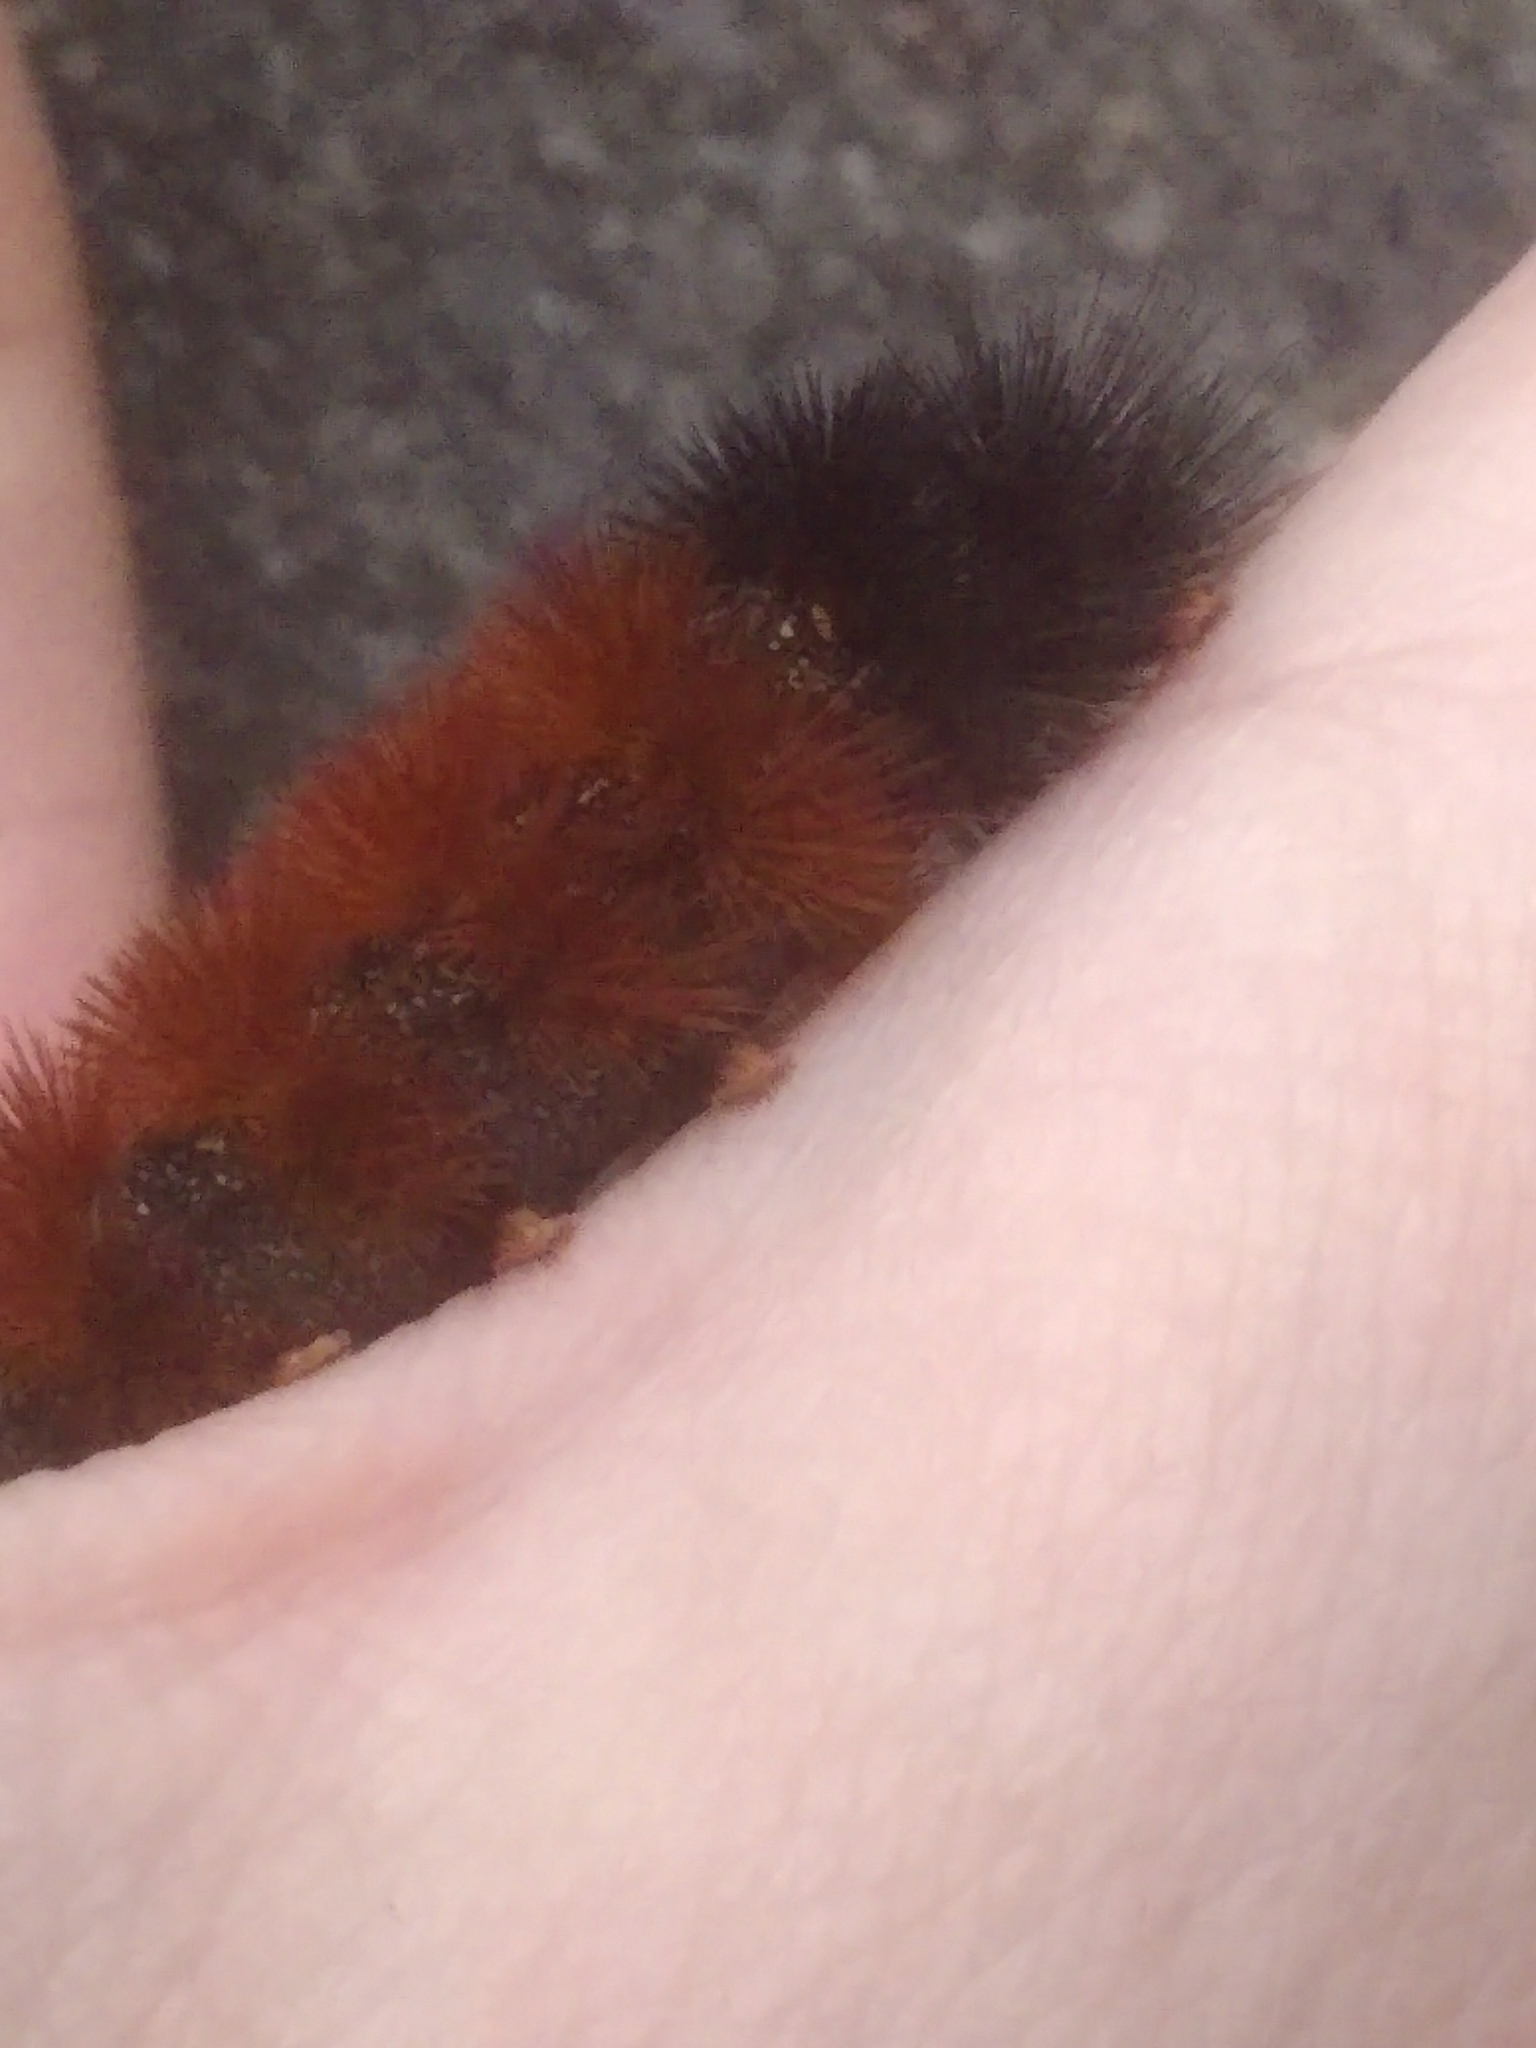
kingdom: Animalia
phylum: Arthropoda
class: Insecta
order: Lepidoptera
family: Erebidae
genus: Pyrrharctia
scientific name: Pyrrharctia isabella
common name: Isabella tiger moth
